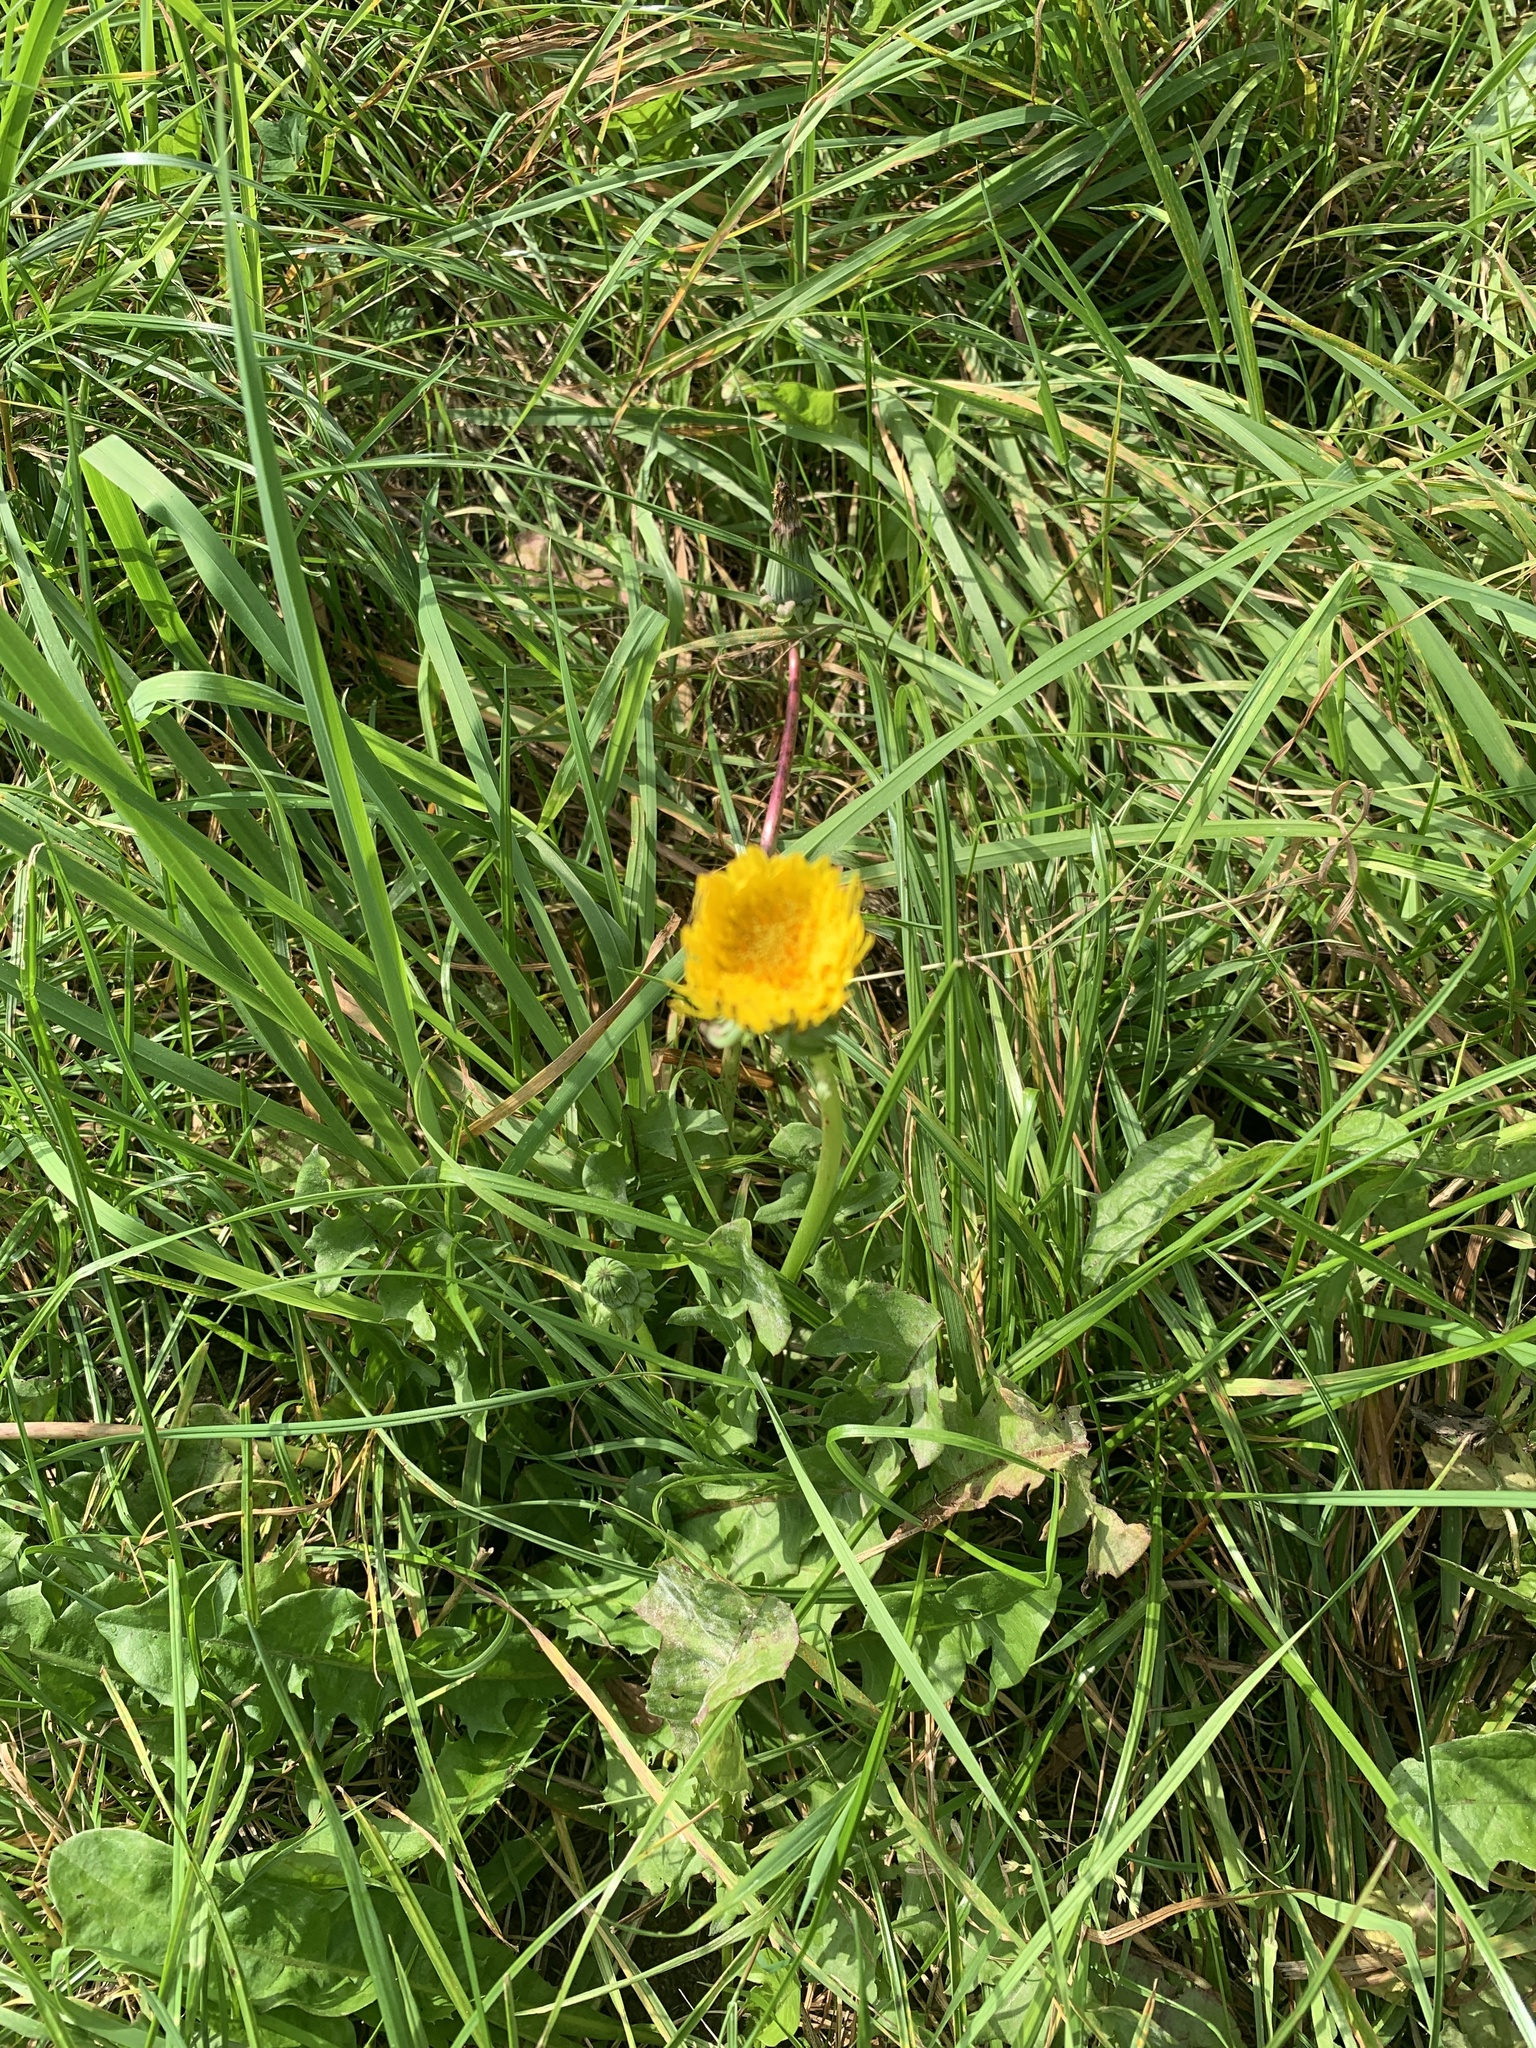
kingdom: Plantae
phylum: Tracheophyta
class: Magnoliopsida
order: Asterales
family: Asteraceae
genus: Taraxacum
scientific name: Taraxacum officinale
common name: Common dandelion
